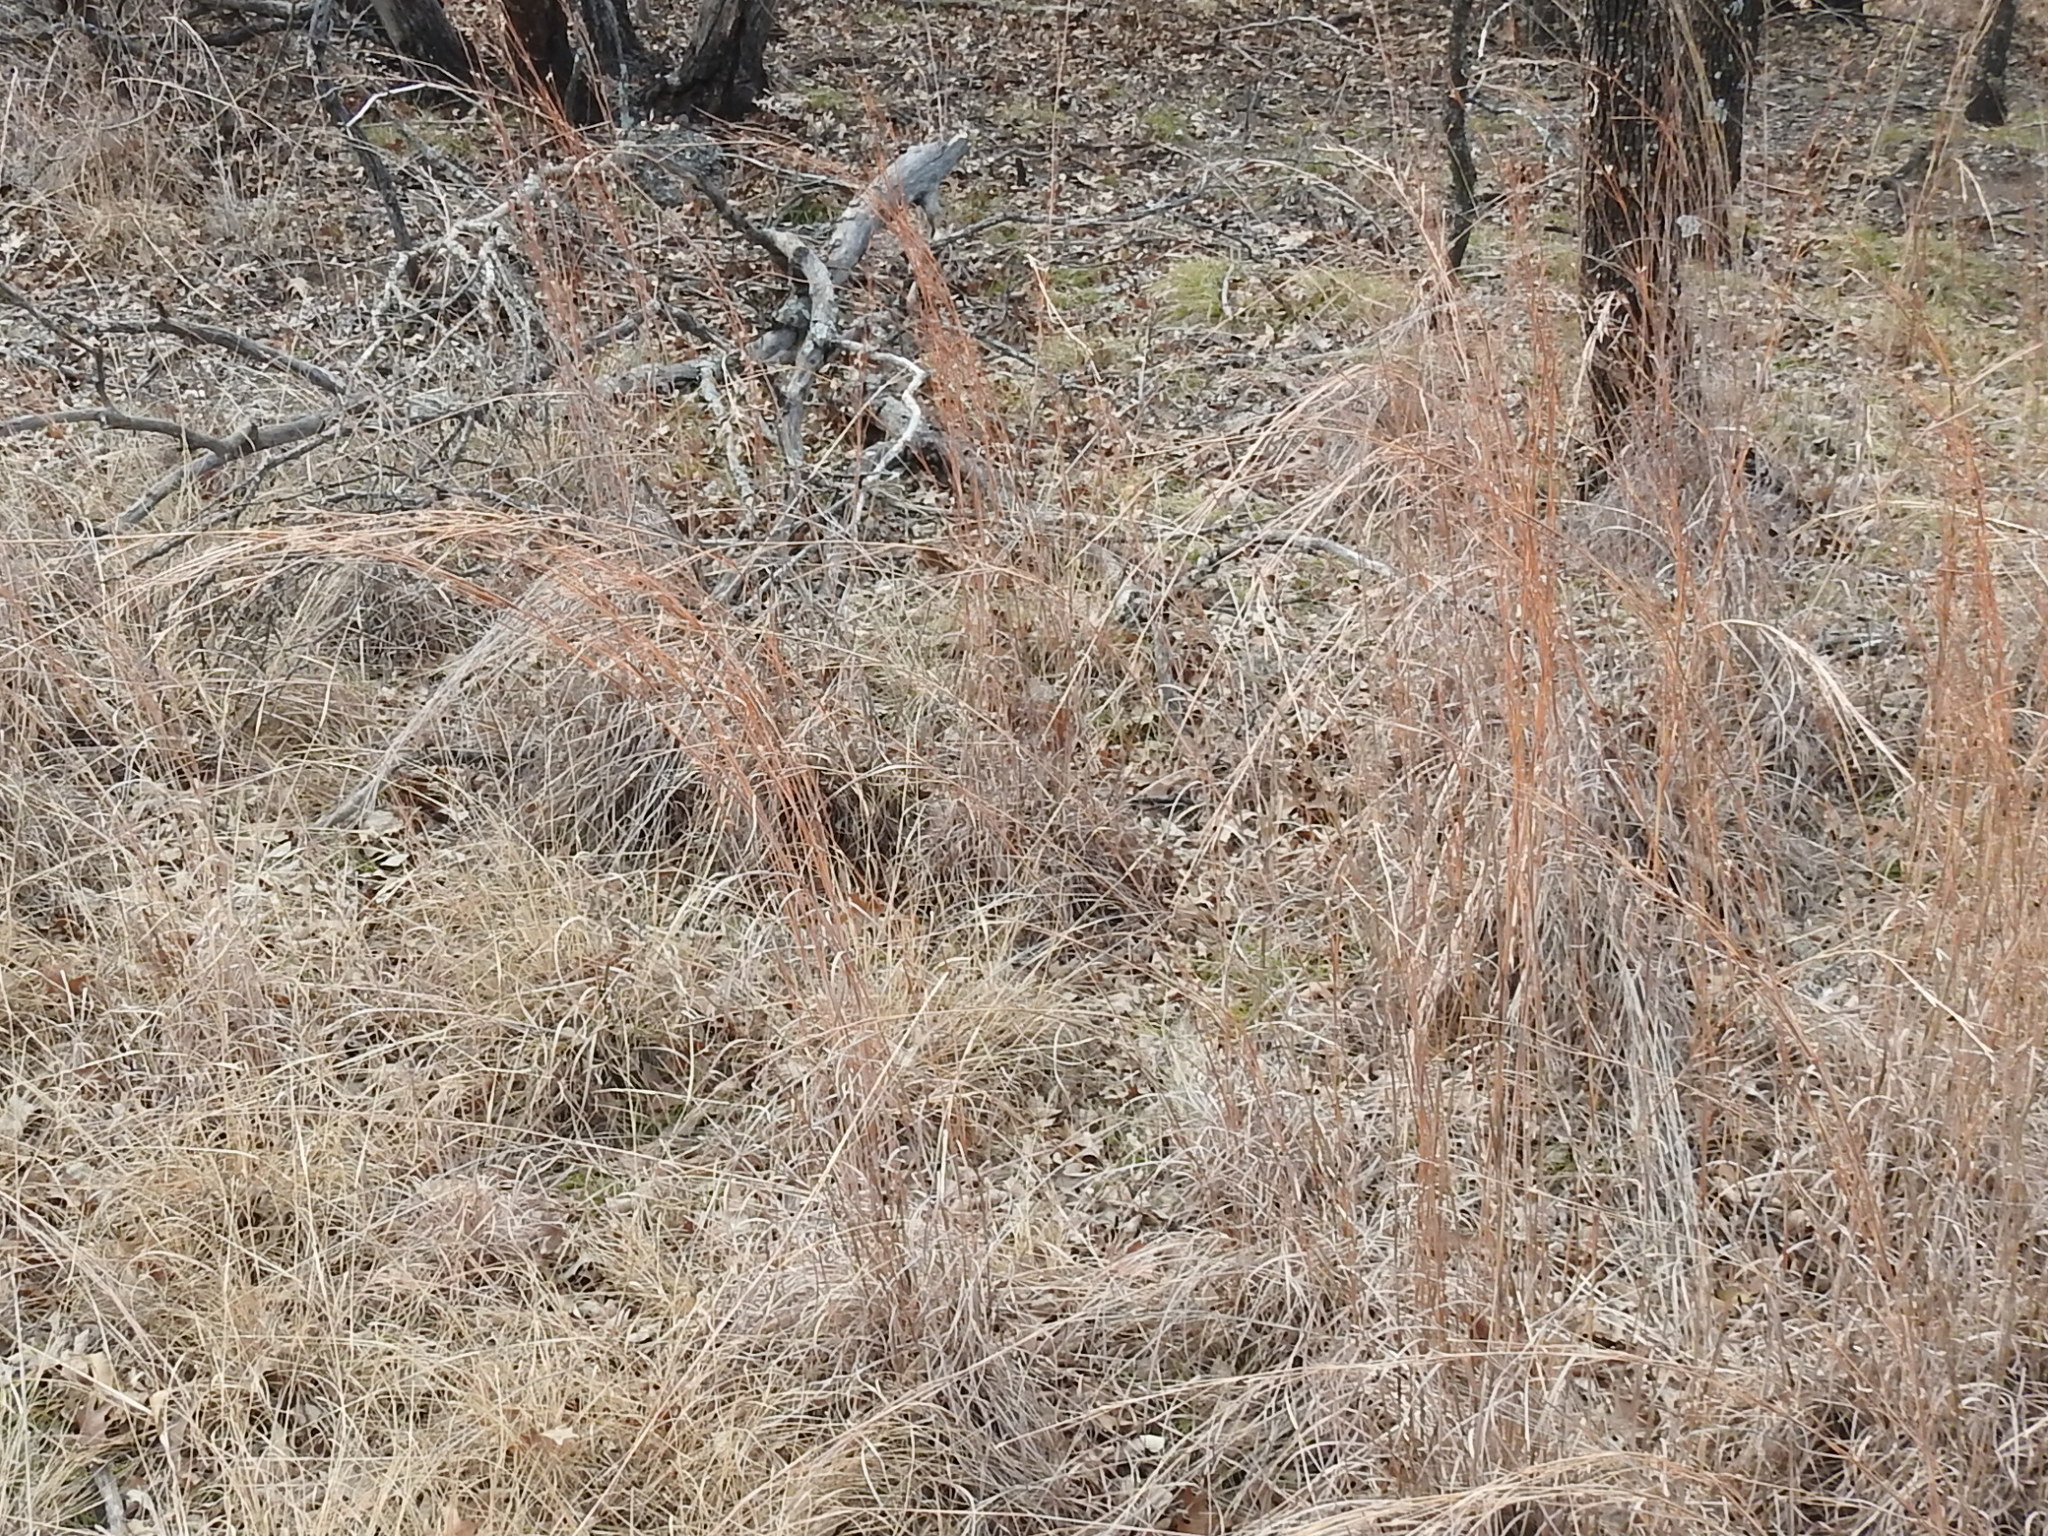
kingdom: Plantae
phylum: Tracheophyta
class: Liliopsida
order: Poales
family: Poaceae
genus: Schizachyrium
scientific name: Schizachyrium scoparium
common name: Little bluestem
